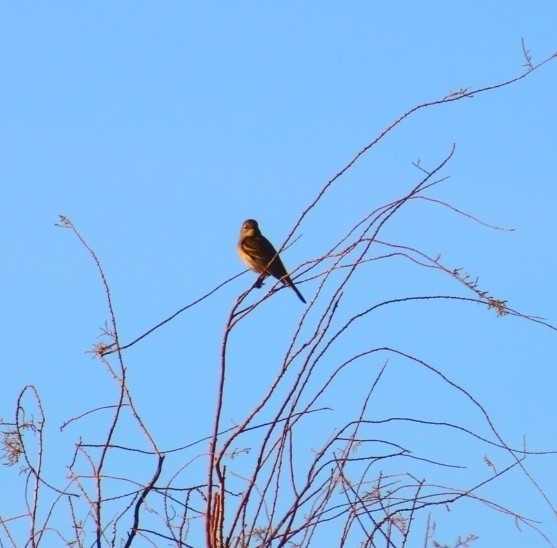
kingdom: Animalia
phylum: Chordata
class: Aves
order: Passeriformes
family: Parulidae
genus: Setophaga
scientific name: Setophaga coronata
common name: Myrtle warbler
